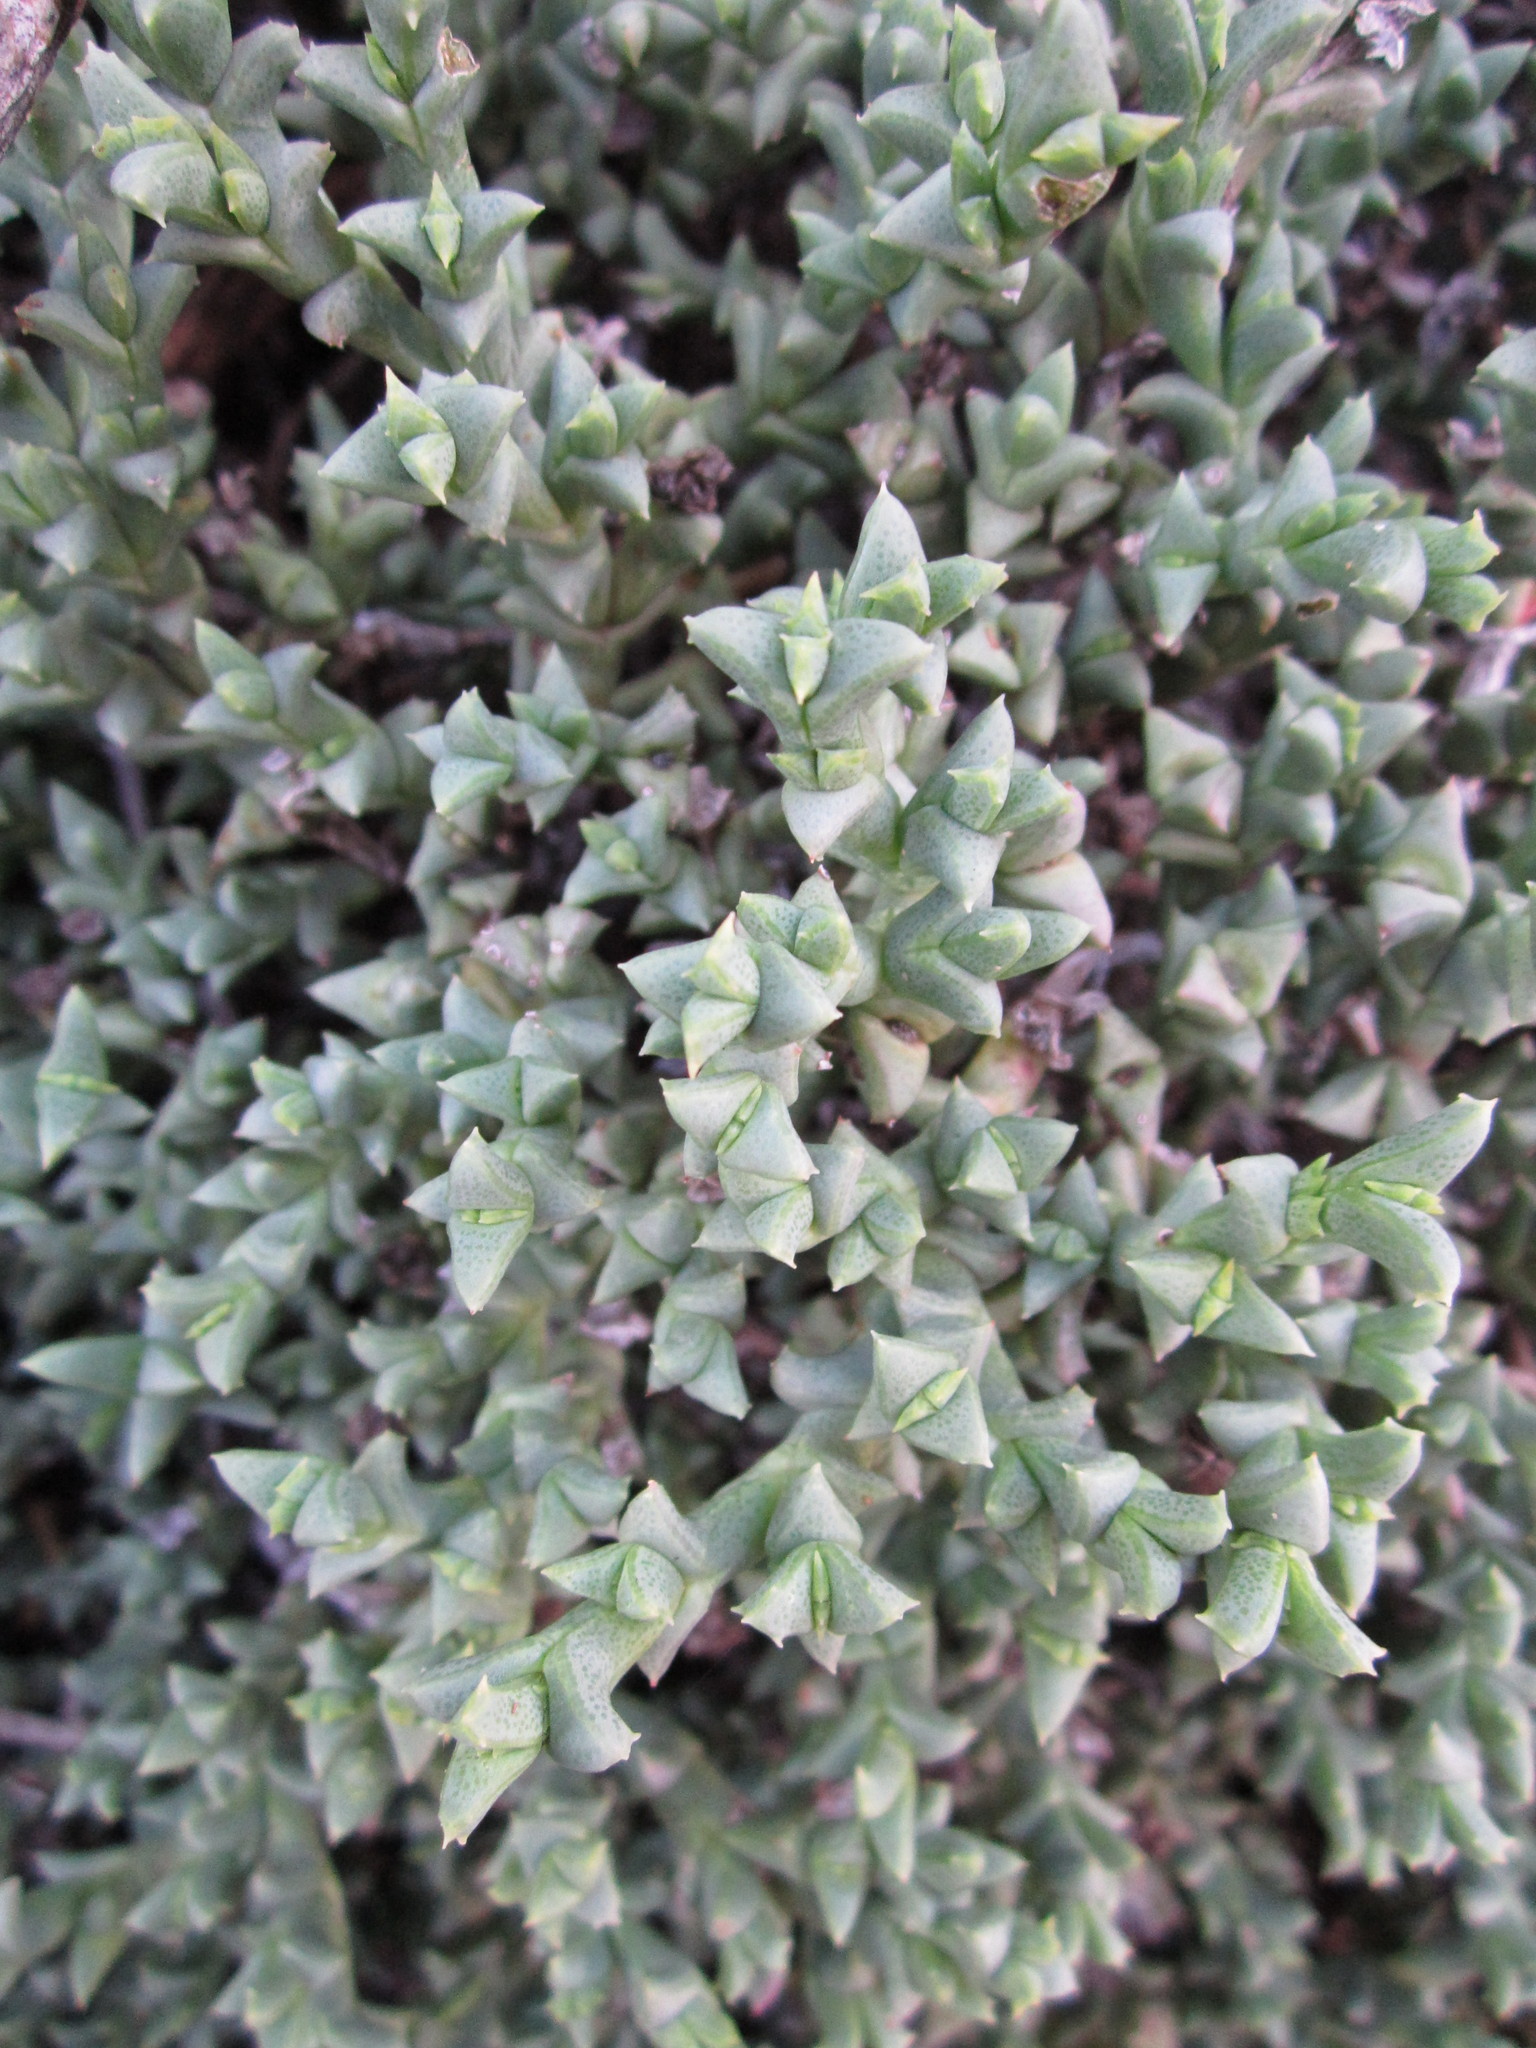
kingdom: Plantae
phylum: Tracheophyta
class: Magnoliopsida
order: Caryophyllales
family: Aizoaceae
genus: Ruschia
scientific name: Ruschia depressa
